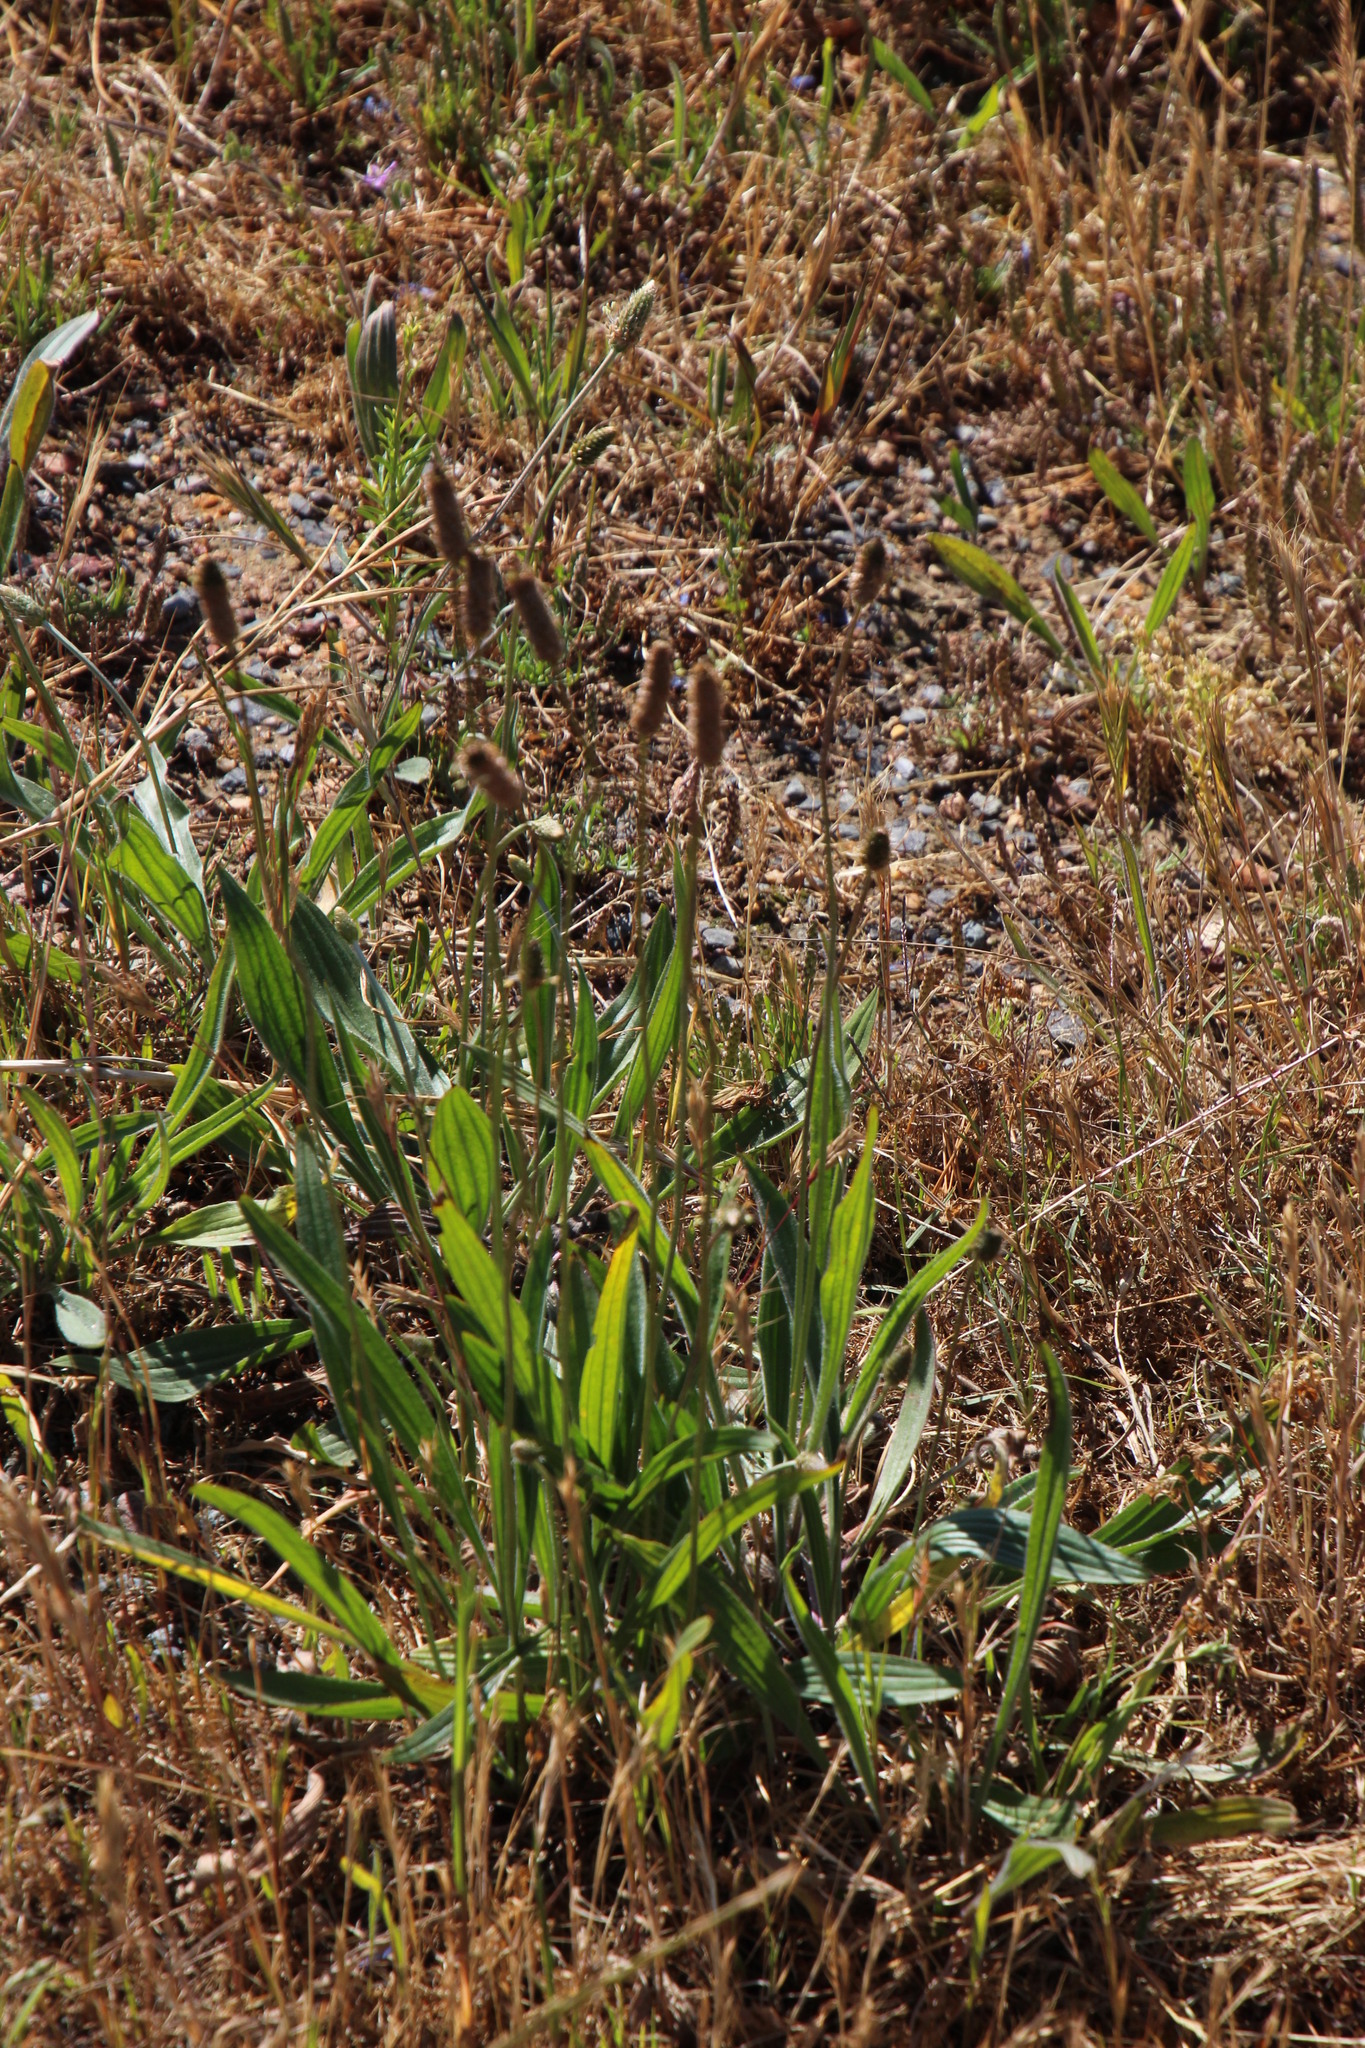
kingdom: Plantae
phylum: Tracheophyta
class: Magnoliopsida
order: Lamiales
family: Plantaginaceae
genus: Plantago
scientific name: Plantago lanceolata
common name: Ribwort plantain
